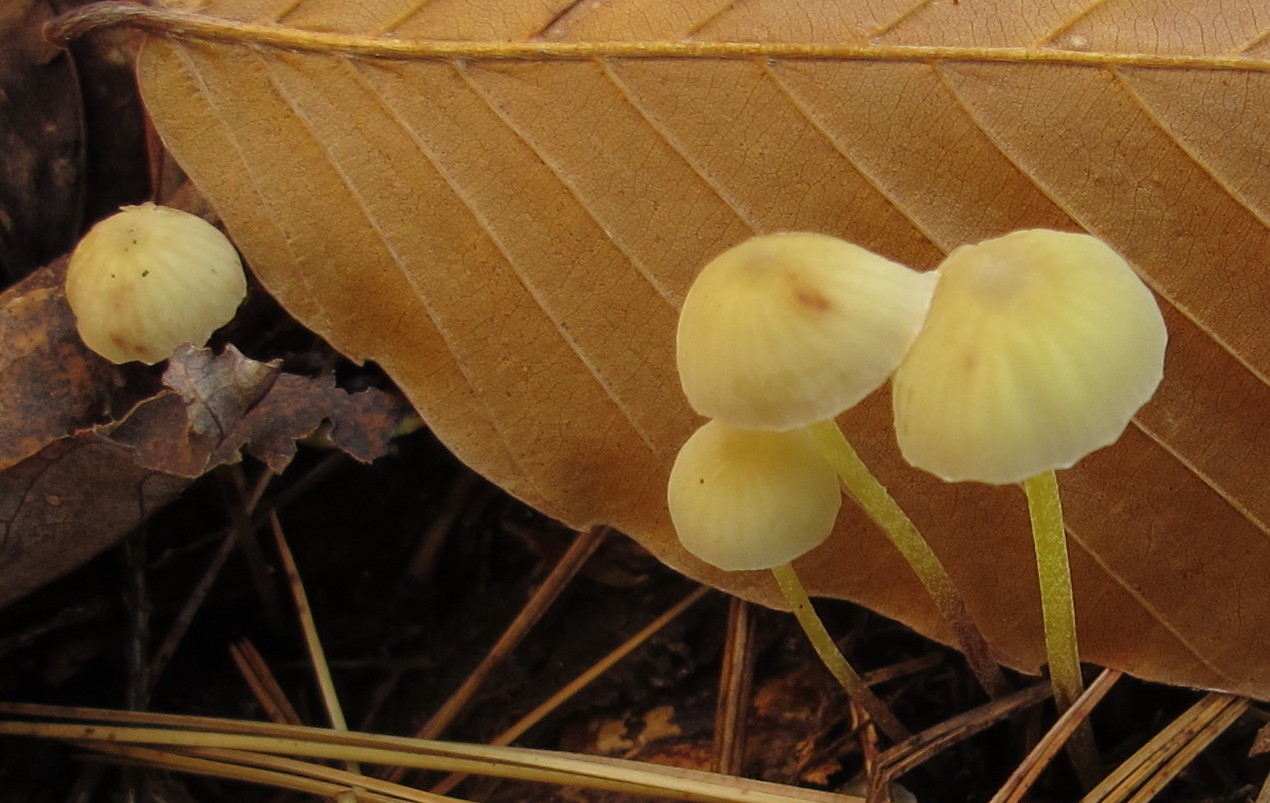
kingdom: Fungi
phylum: Basidiomycota
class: Agaricomycetes
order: Agaricales
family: Mycenaceae
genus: Mycena
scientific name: Mycena epipterygia
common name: Yellowleg bonnet
